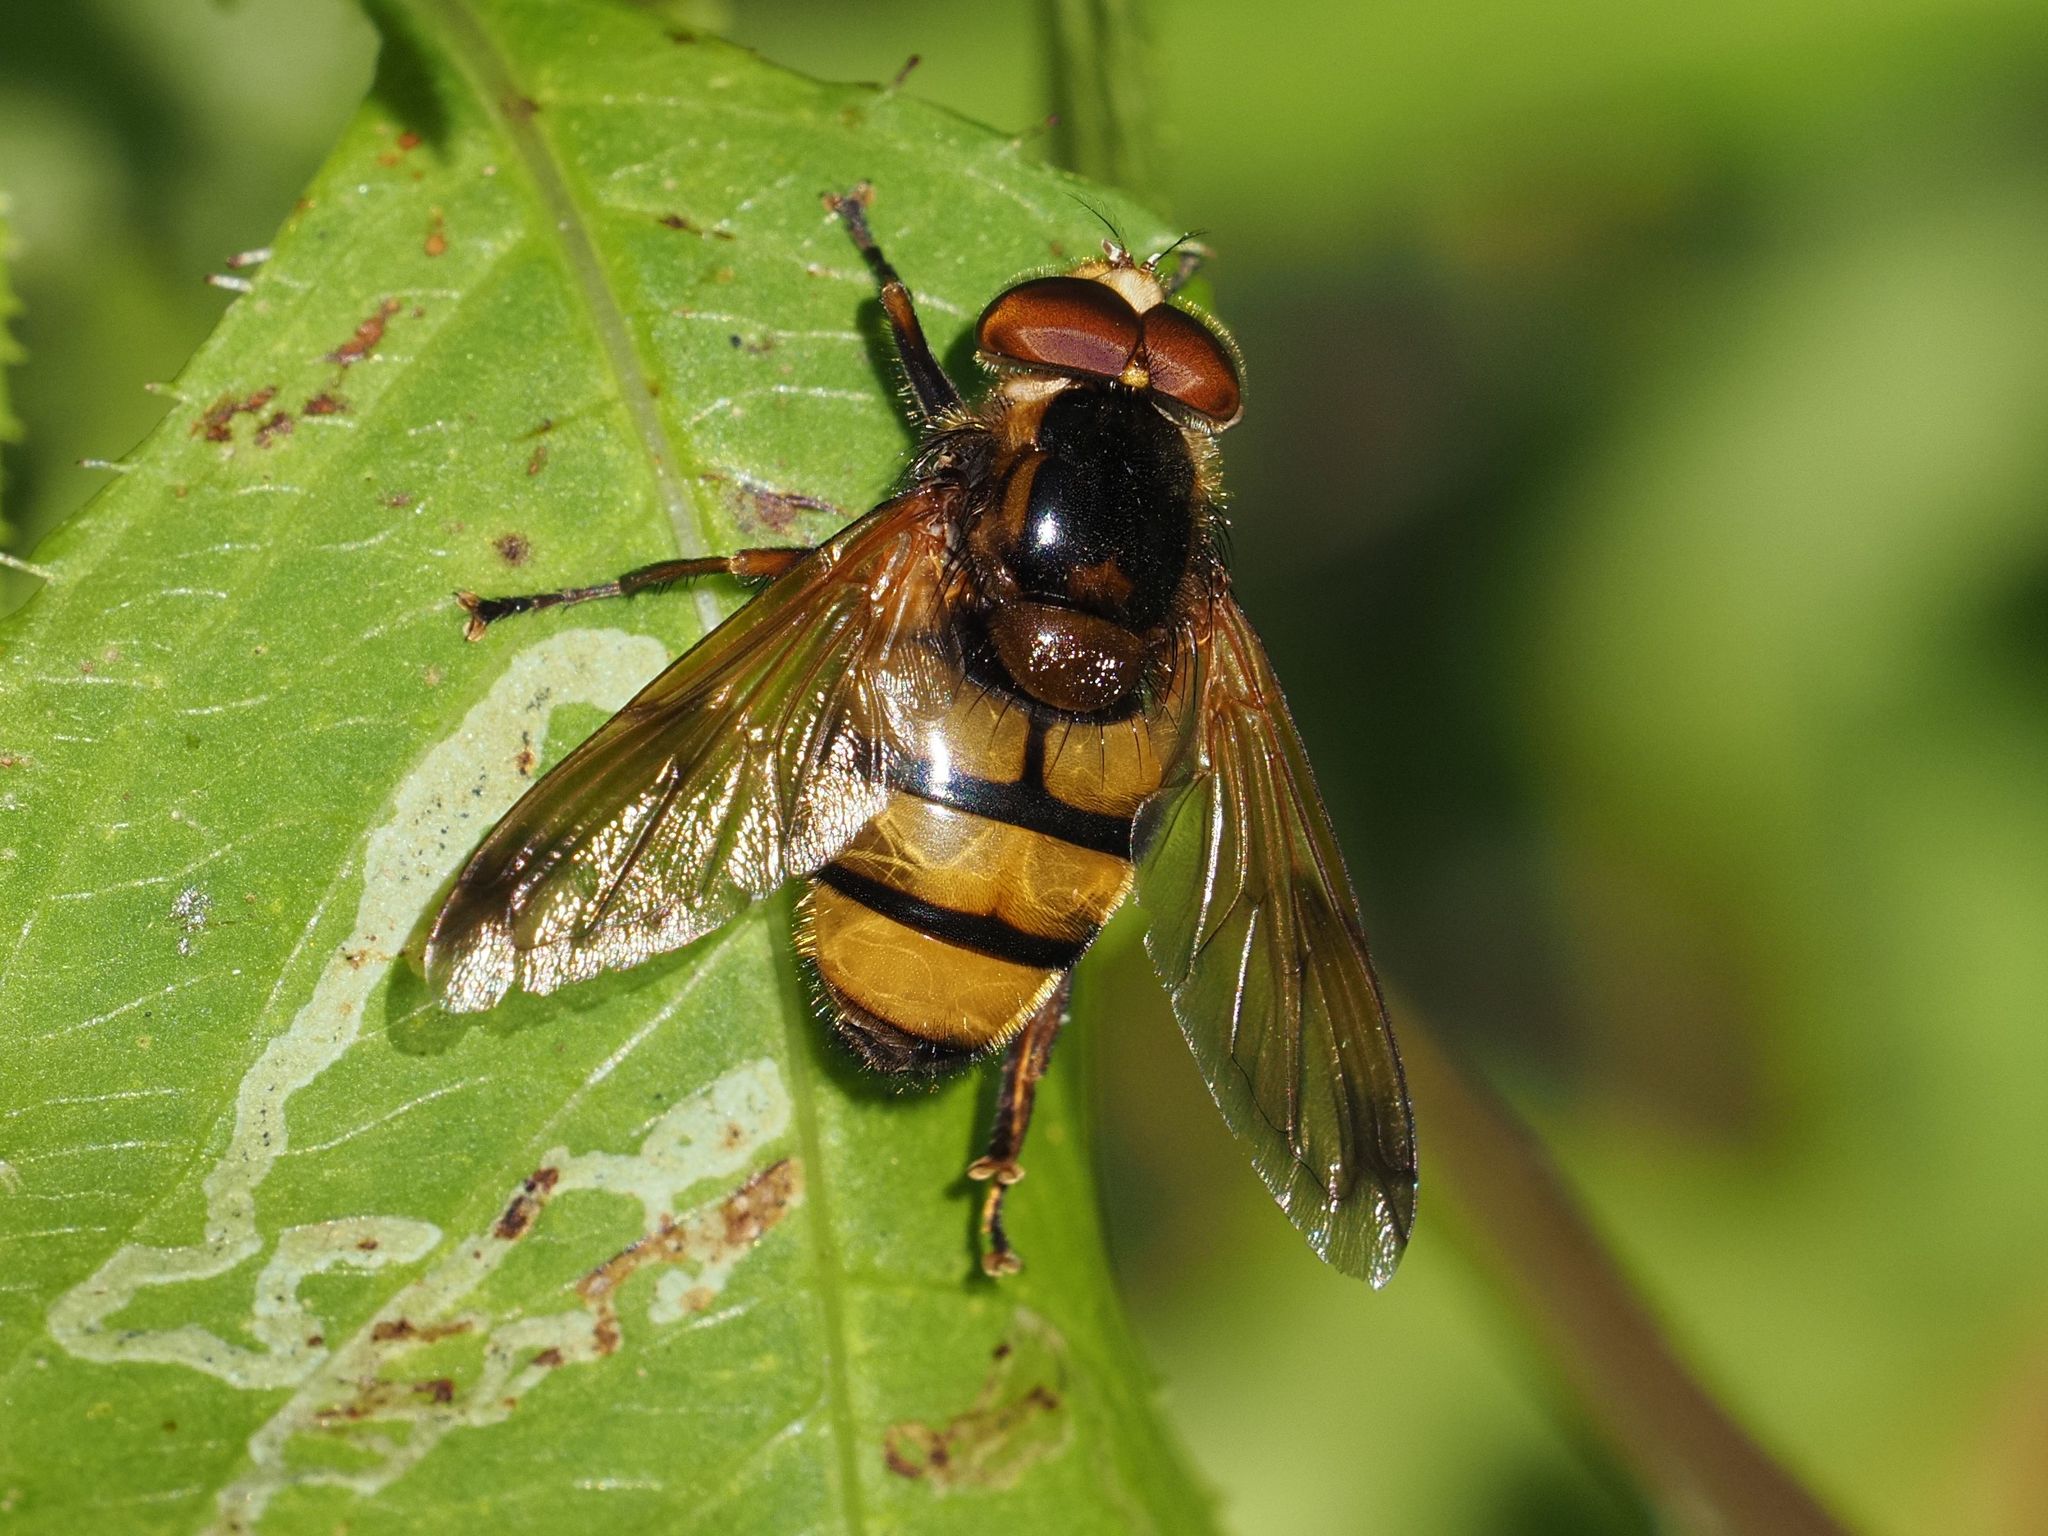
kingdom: Animalia
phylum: Arthropoda
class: Insecta
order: Diptera
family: Syrphidae
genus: Volucella
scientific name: Volucella inanis
